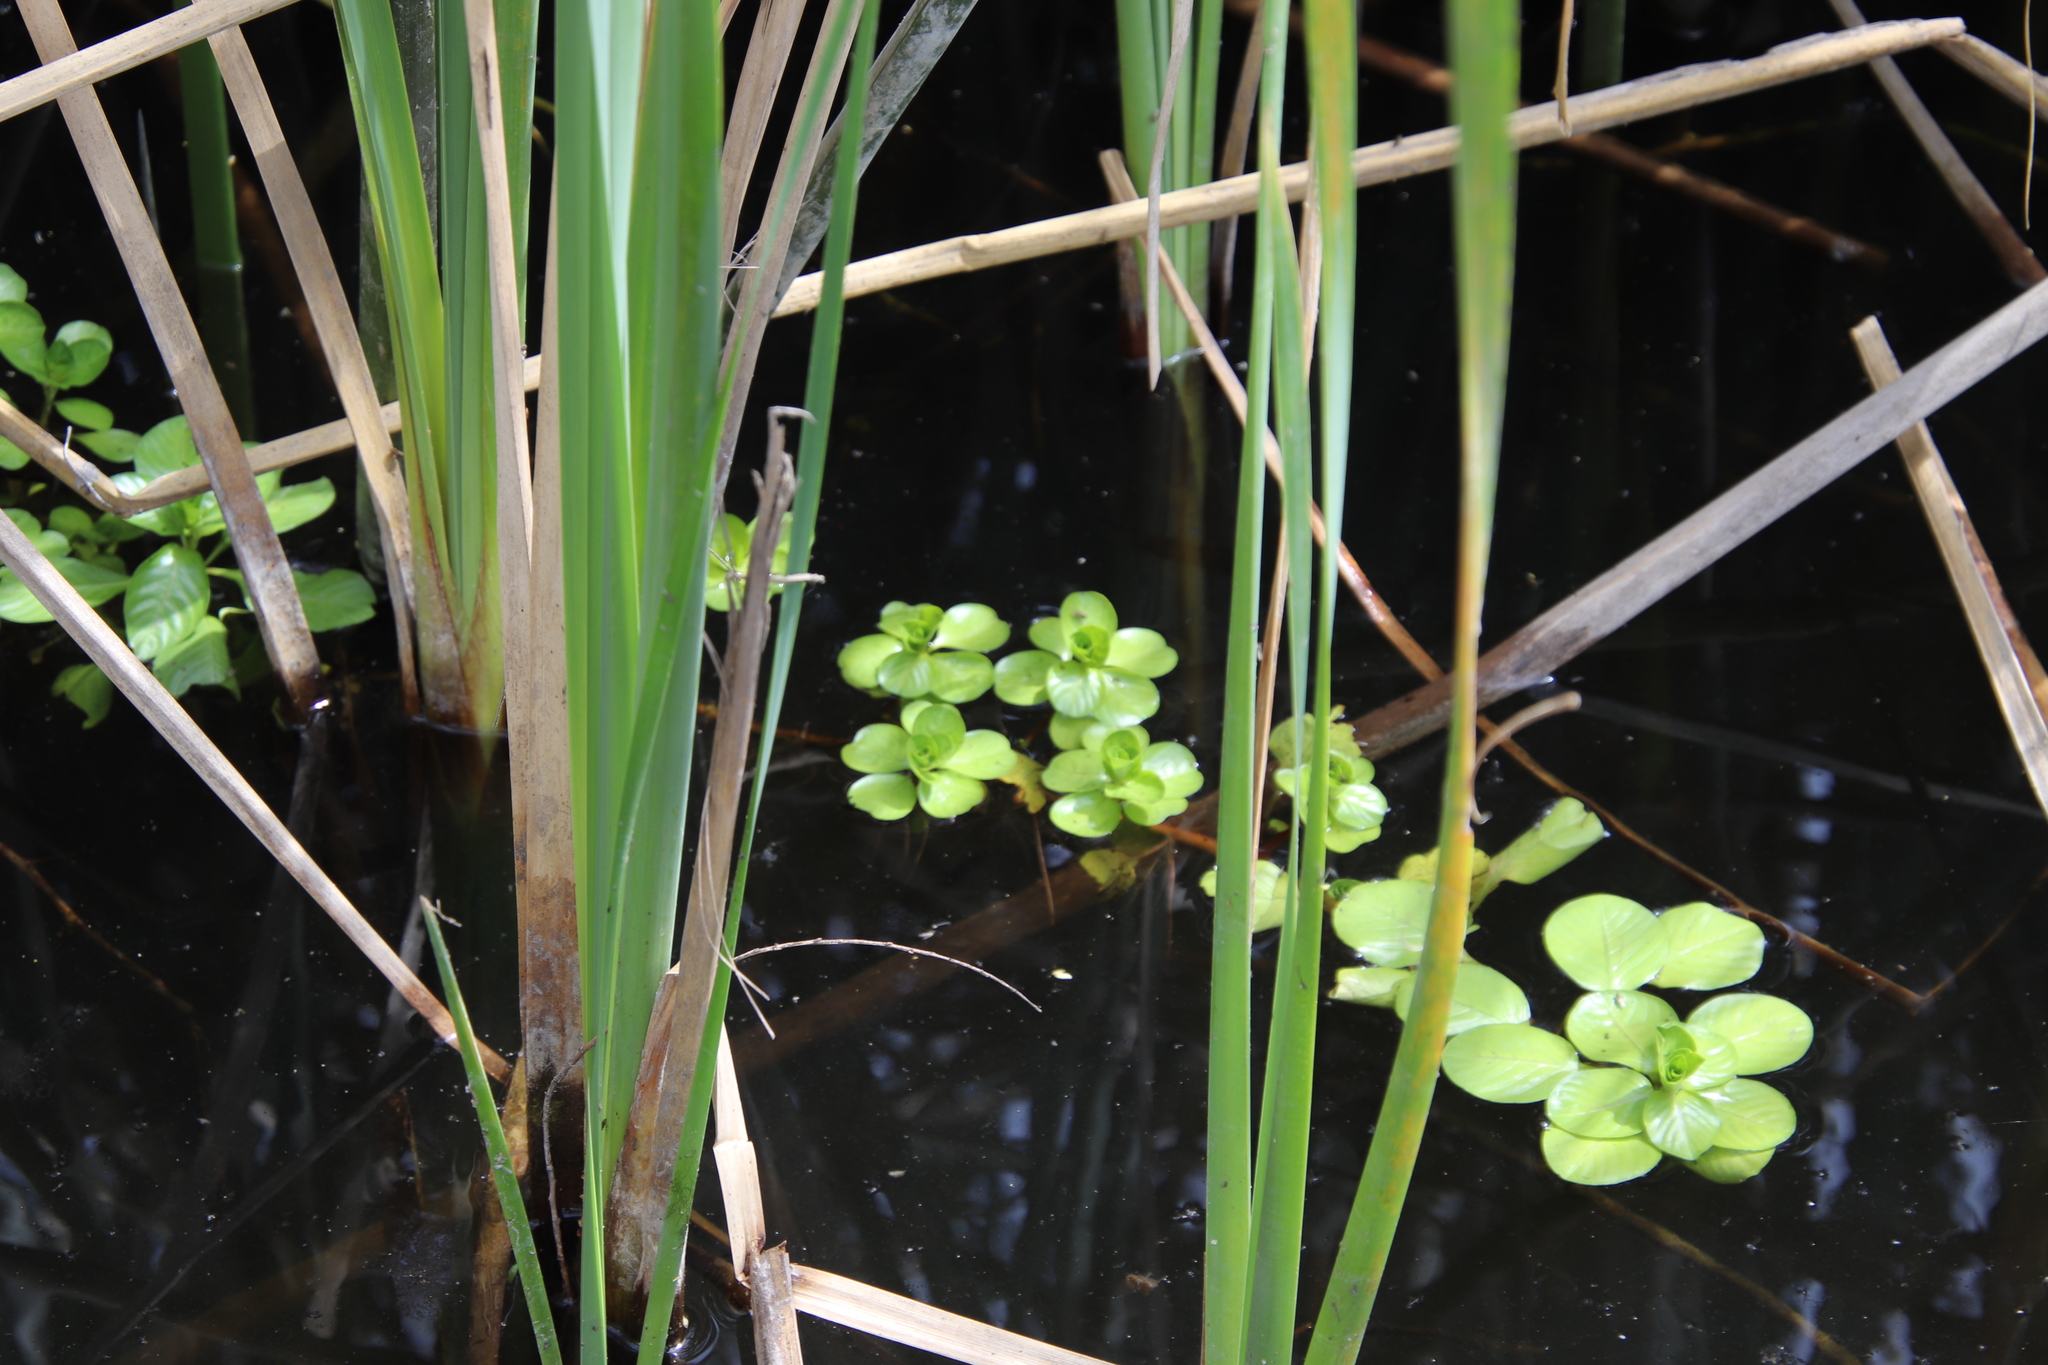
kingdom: Plantae
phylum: Tracheophyta
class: Magnoliopsida
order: Myrtales
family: Onagraceae
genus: Ludwigia
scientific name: Ludwigia peploides
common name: Floating primrose-willow
